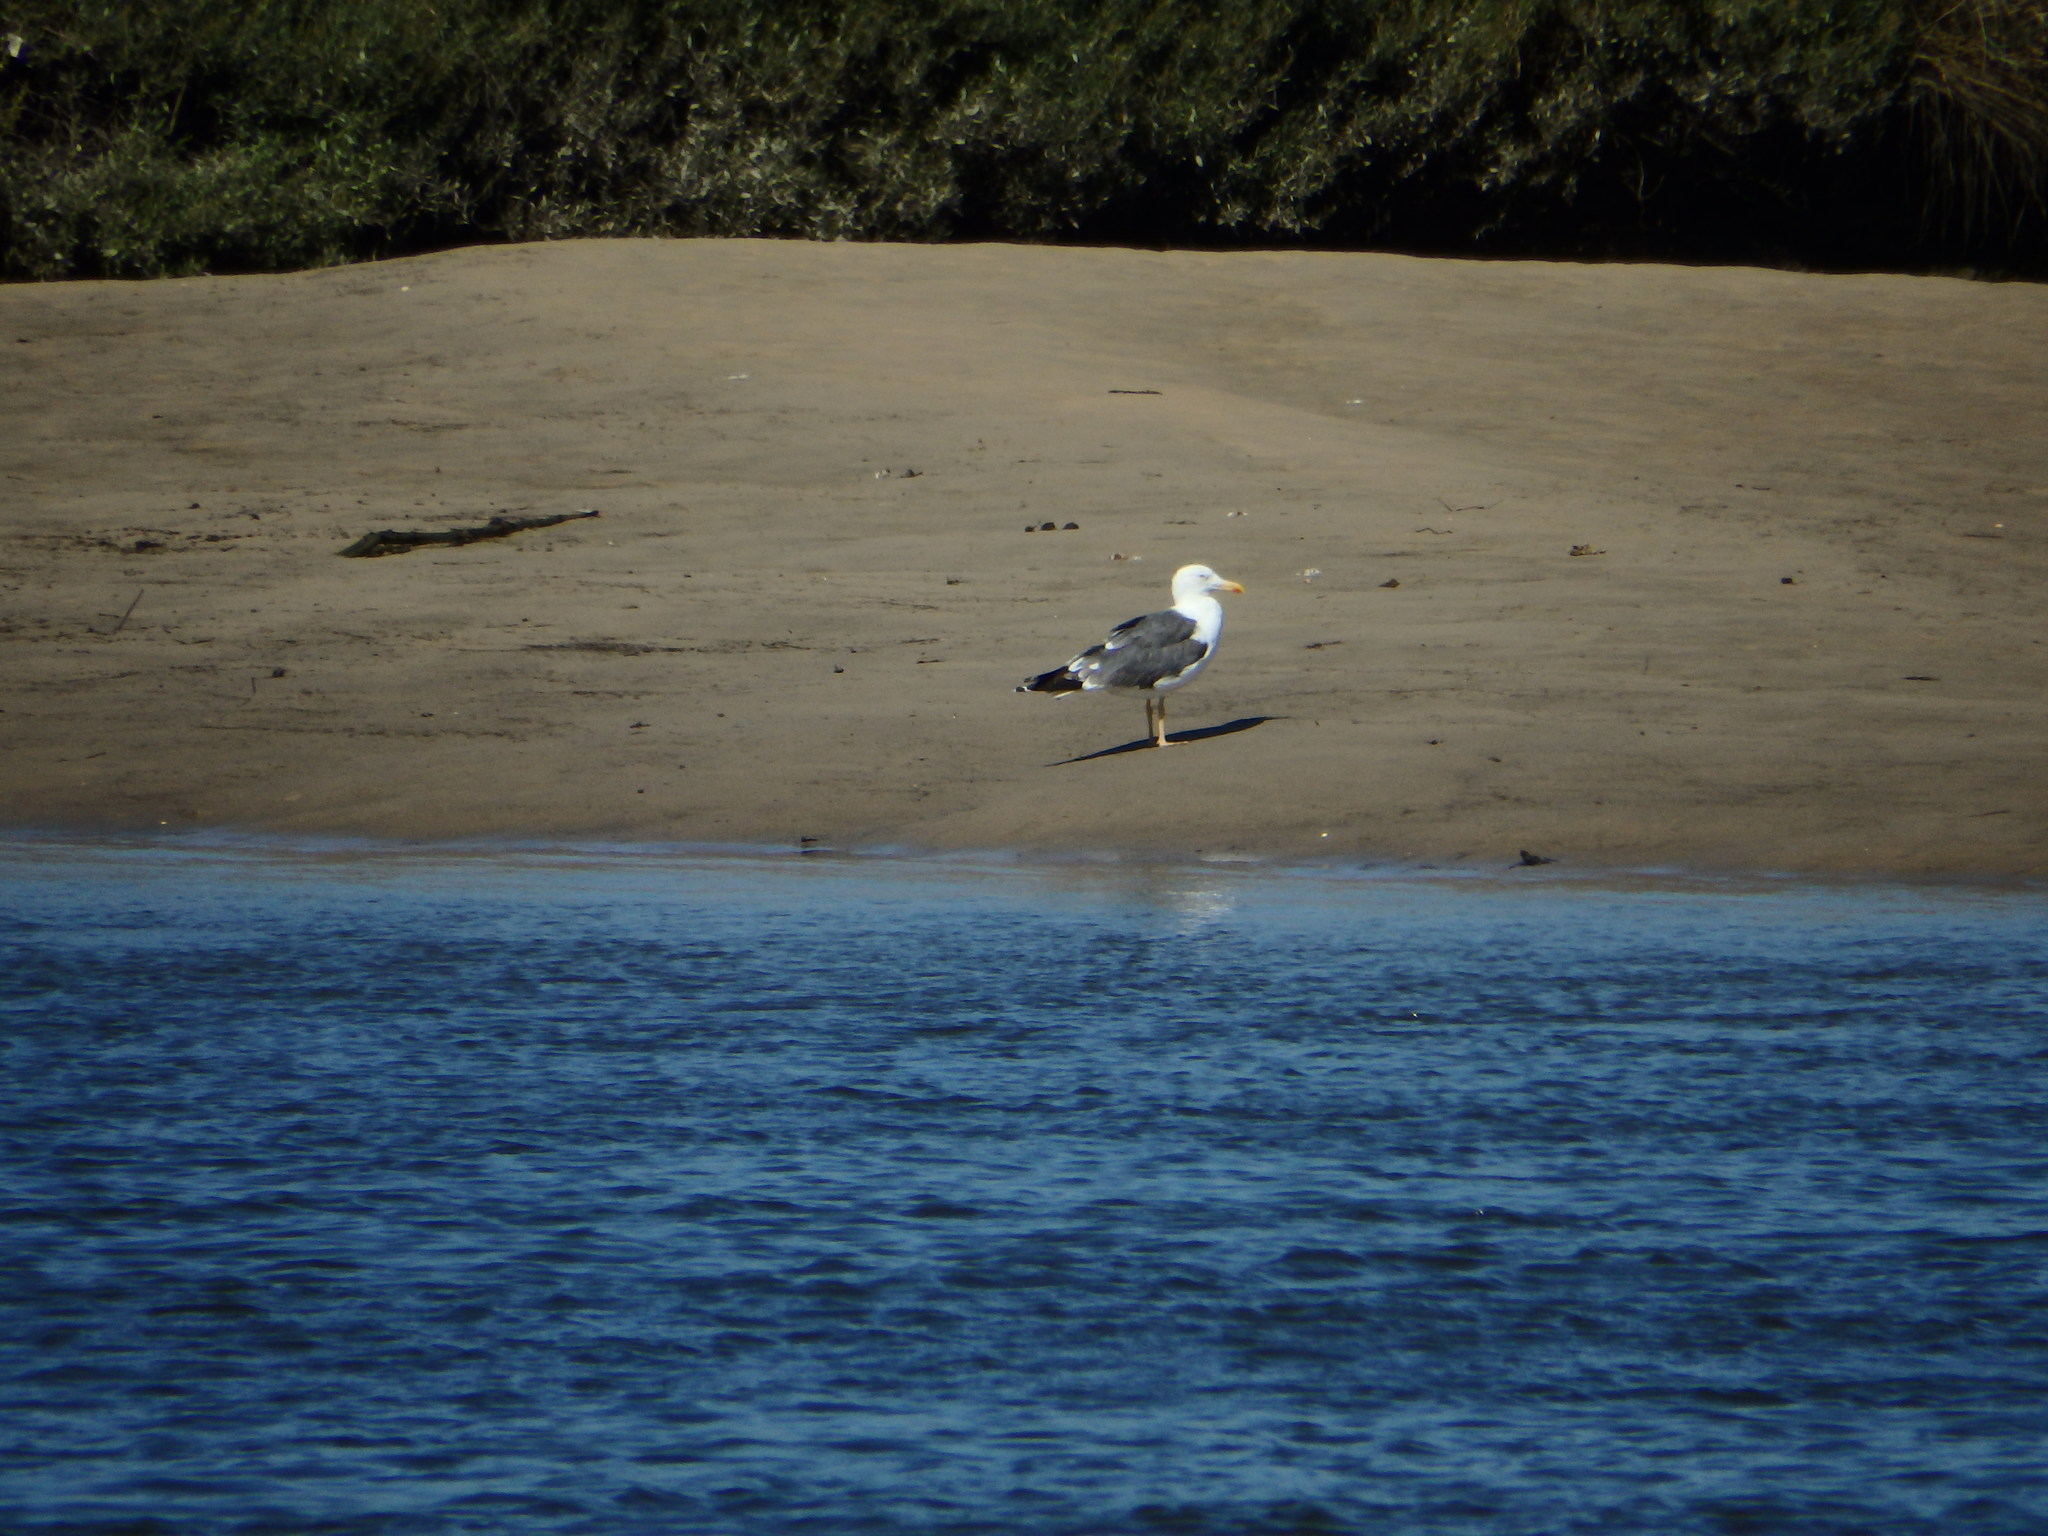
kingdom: Animalia
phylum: Chordata
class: Aves
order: Charadriiformes
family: Laridae
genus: Larus
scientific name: Larus fuscus
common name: Lesser black-backed gull
